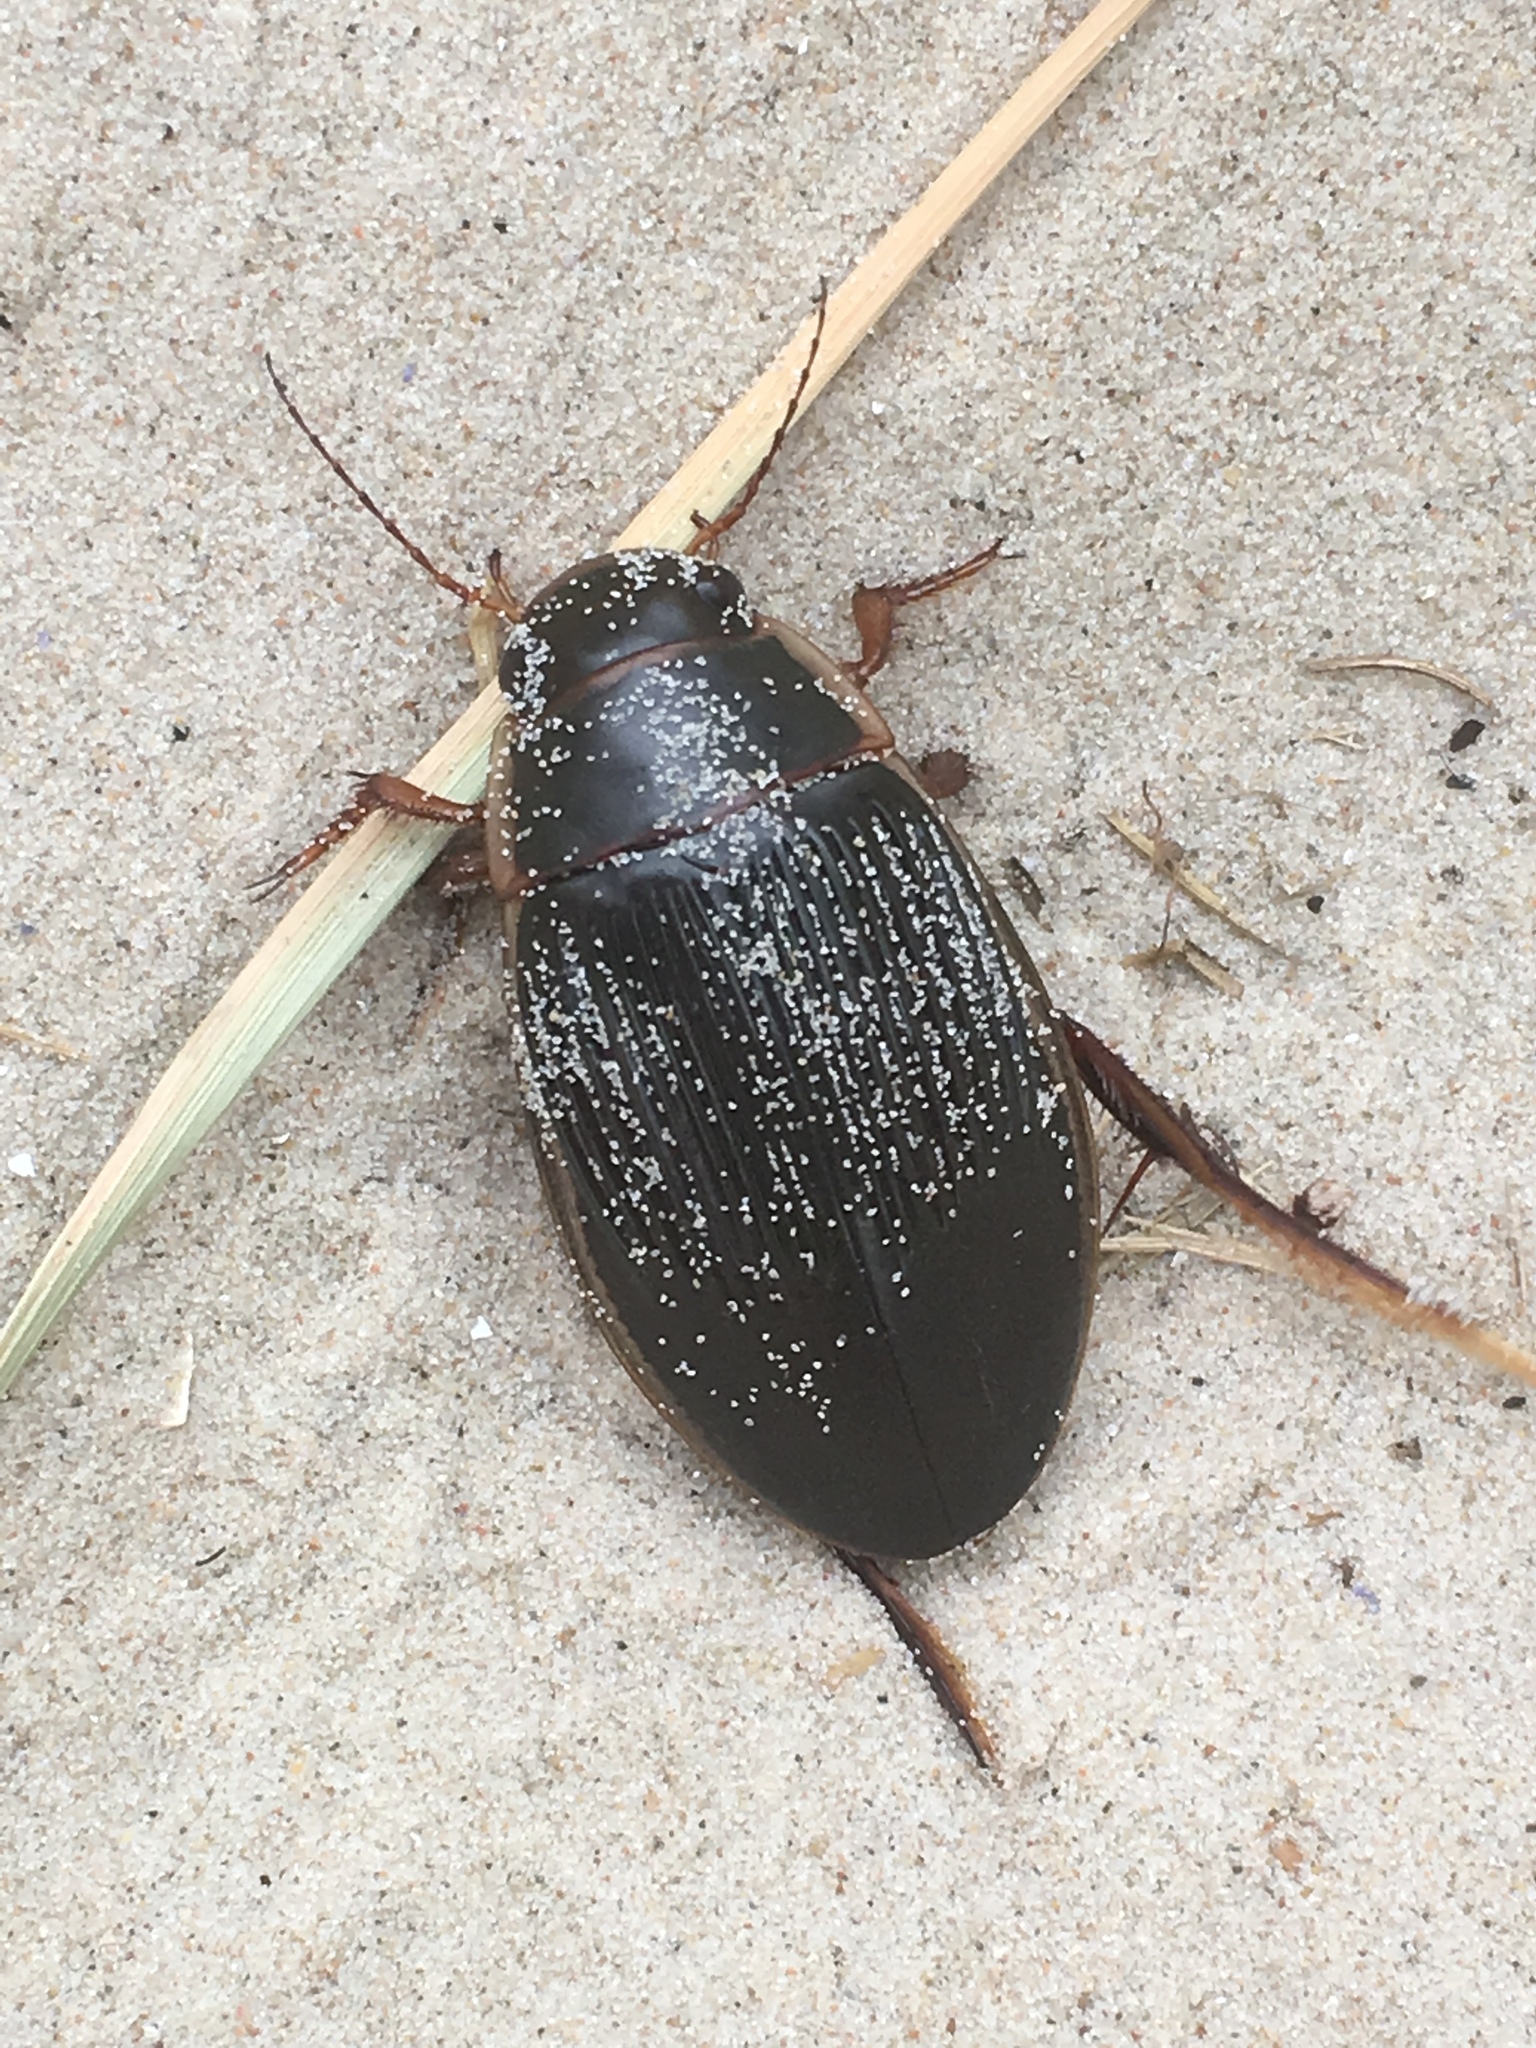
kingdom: Animalia
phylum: Arthropoda
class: Insecta
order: Coleoptera
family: Dytiscidae
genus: Dytiscus
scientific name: Dytiscus marginalis
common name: Great water beetle
